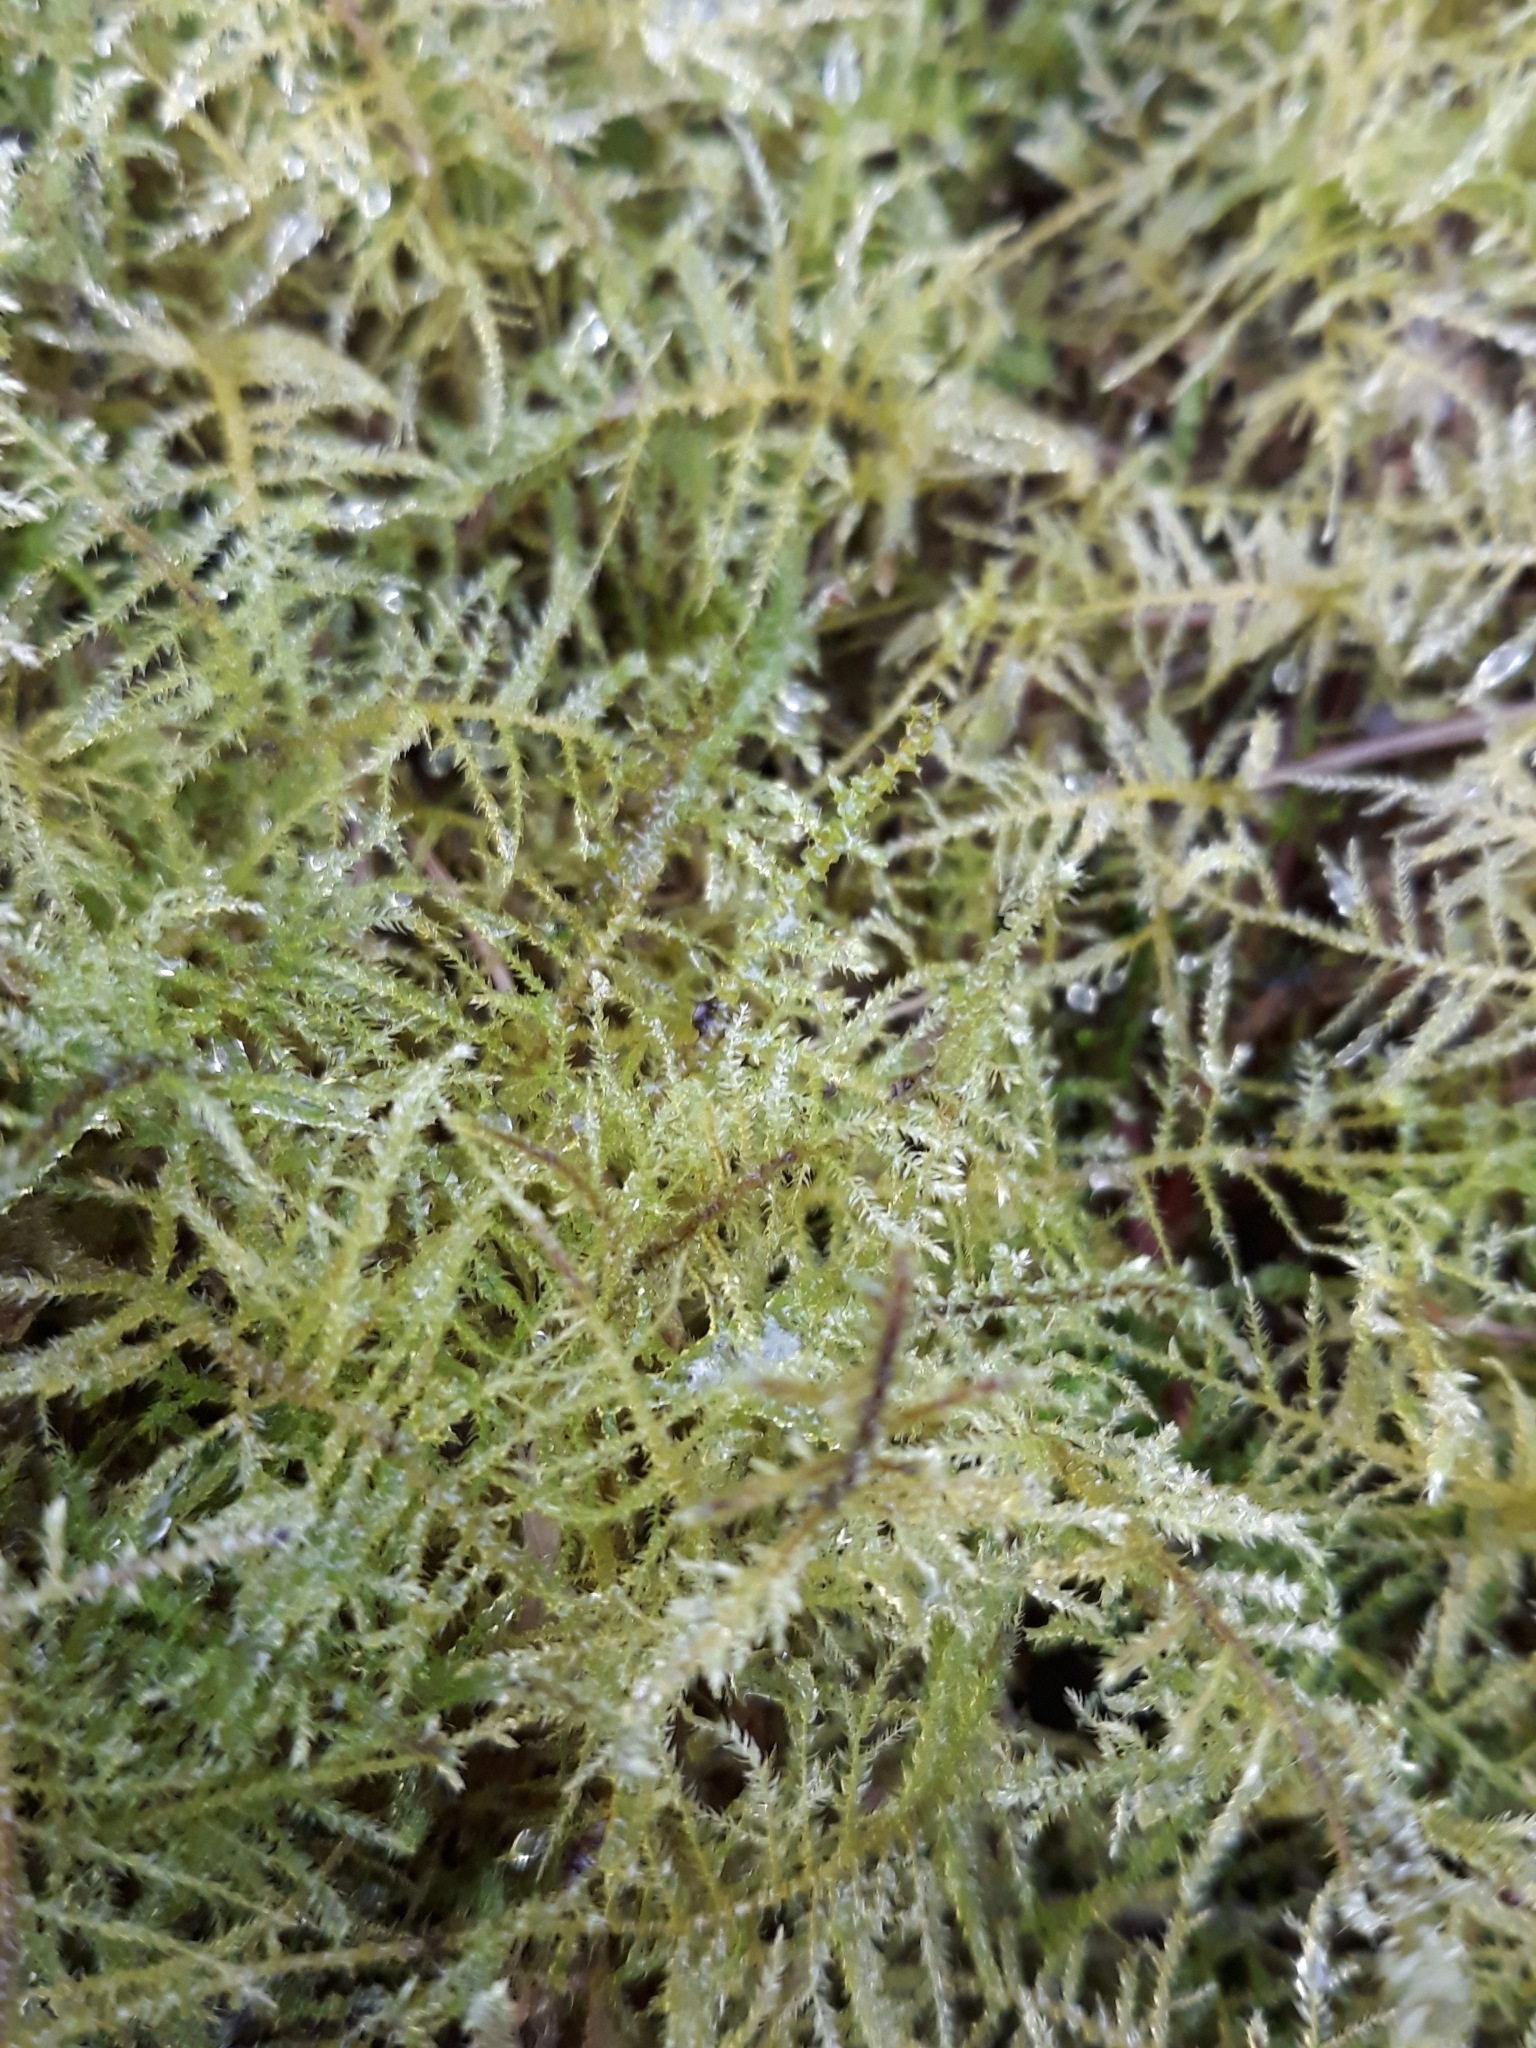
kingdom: Plantae
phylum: Bryophyta
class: Bryopsida
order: Hypnales
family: Brachytheciaceae
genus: Kindbergia
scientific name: Kindbergia praelonga
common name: Slender beaked moss
